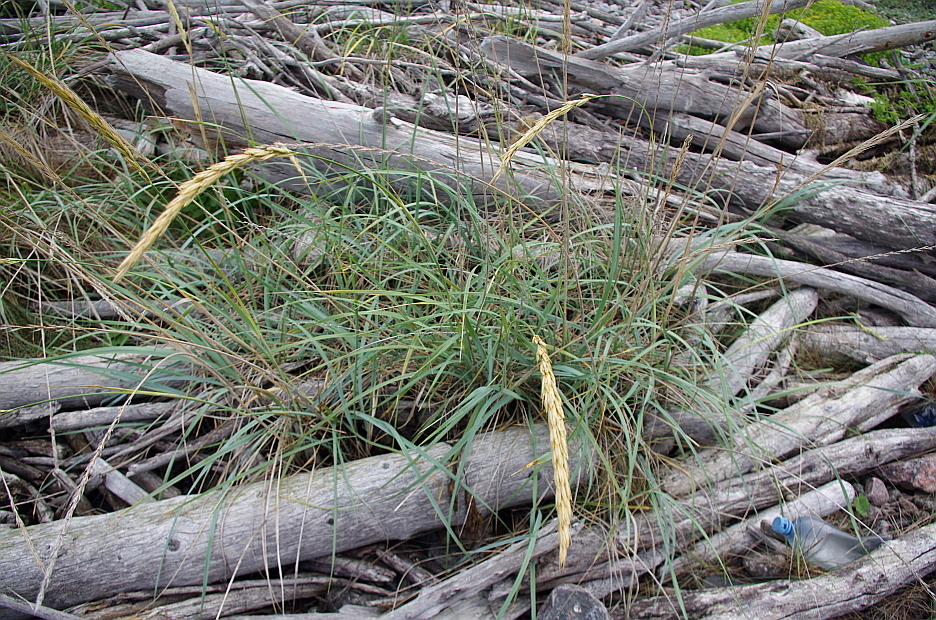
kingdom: Plantae
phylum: Tracheophyta
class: Liliopsida
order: Poales
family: Poaceae
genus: Leymus
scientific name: Leymus arenarius
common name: Lyme-grass
